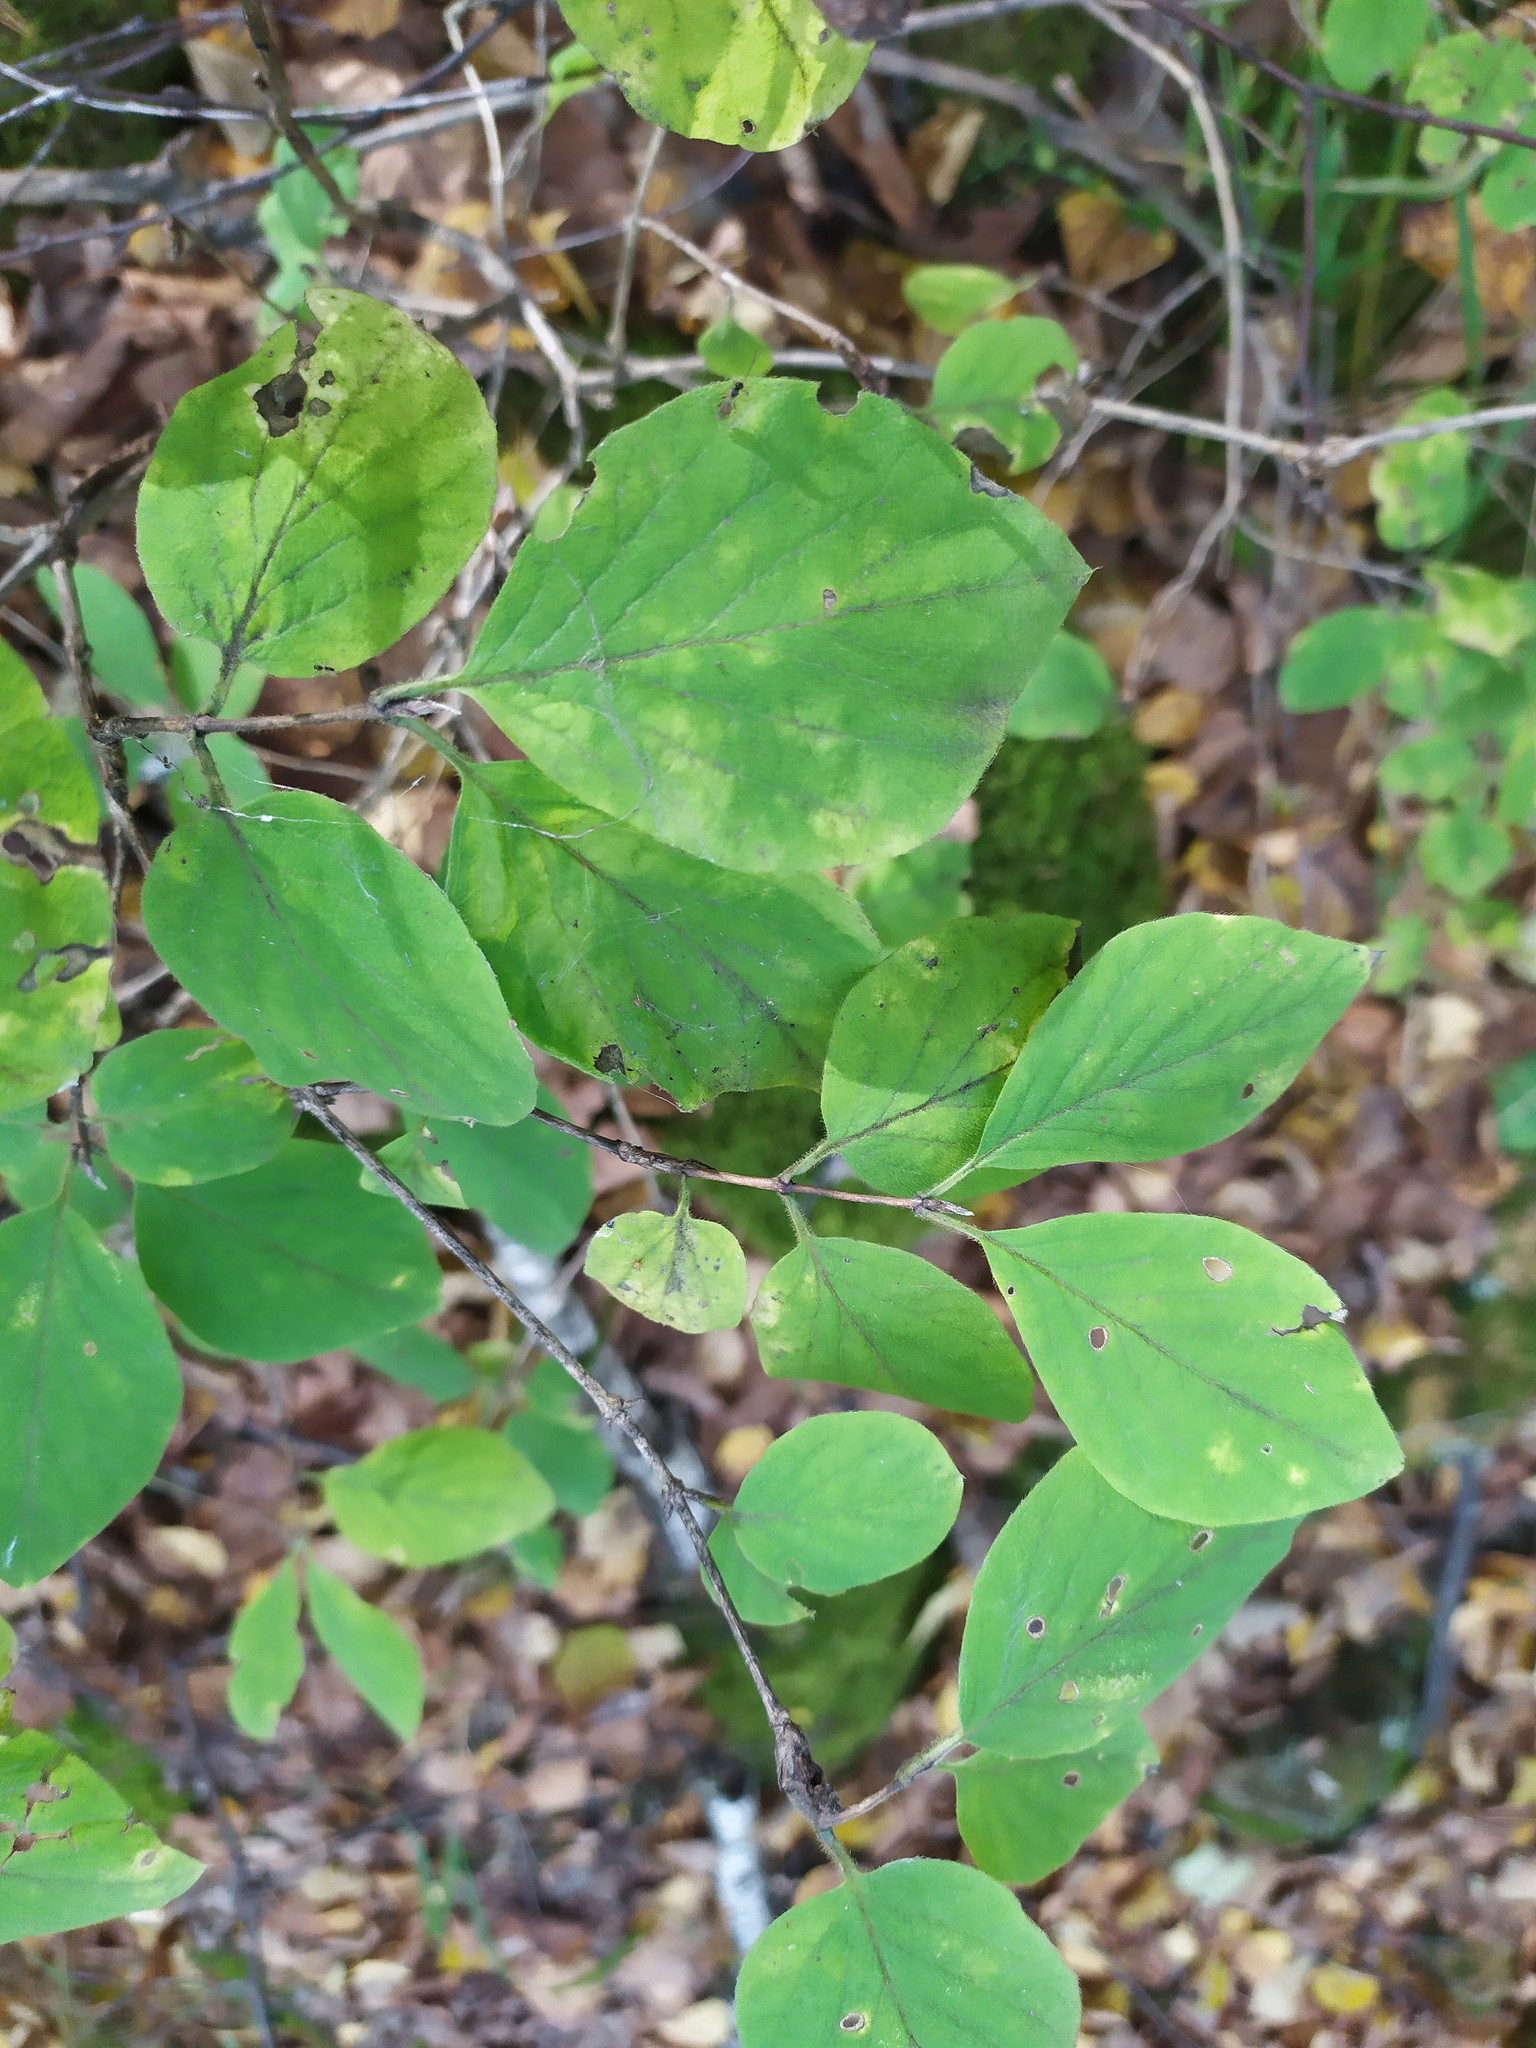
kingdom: Plantae
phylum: Tracheophyta
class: Magnoliopsida
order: Dipsacales
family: Caprifoliaceae
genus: Lonicera
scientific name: Lonicera xylosteum
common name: Fly honeysuckle
